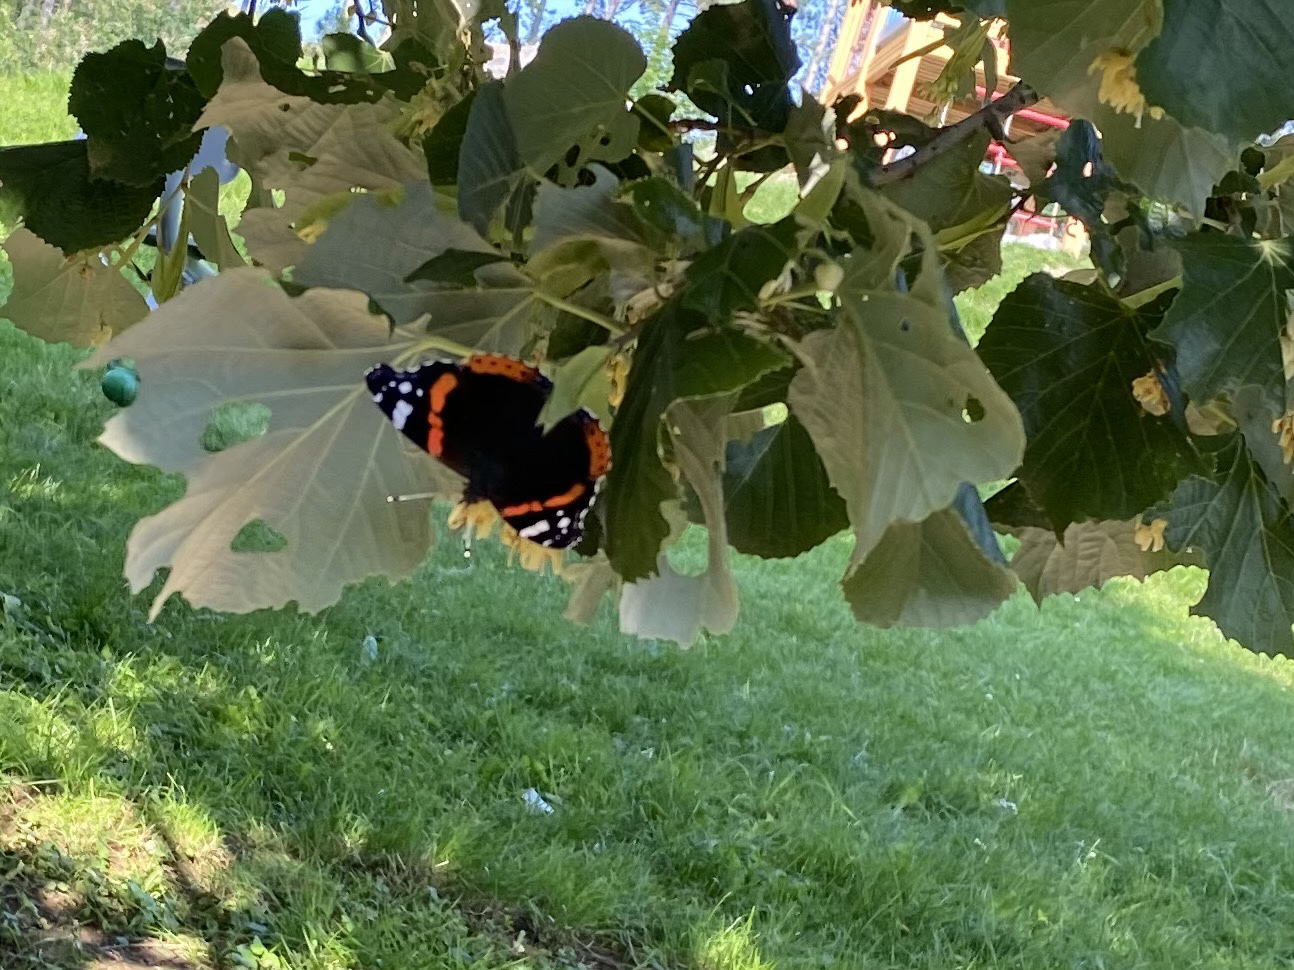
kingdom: Animalia
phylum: Arthropoda
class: Insecta
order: Lepidoptera
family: Nymphalidae
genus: Vanessa
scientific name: Vanessa atalanta
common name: Red admiral
